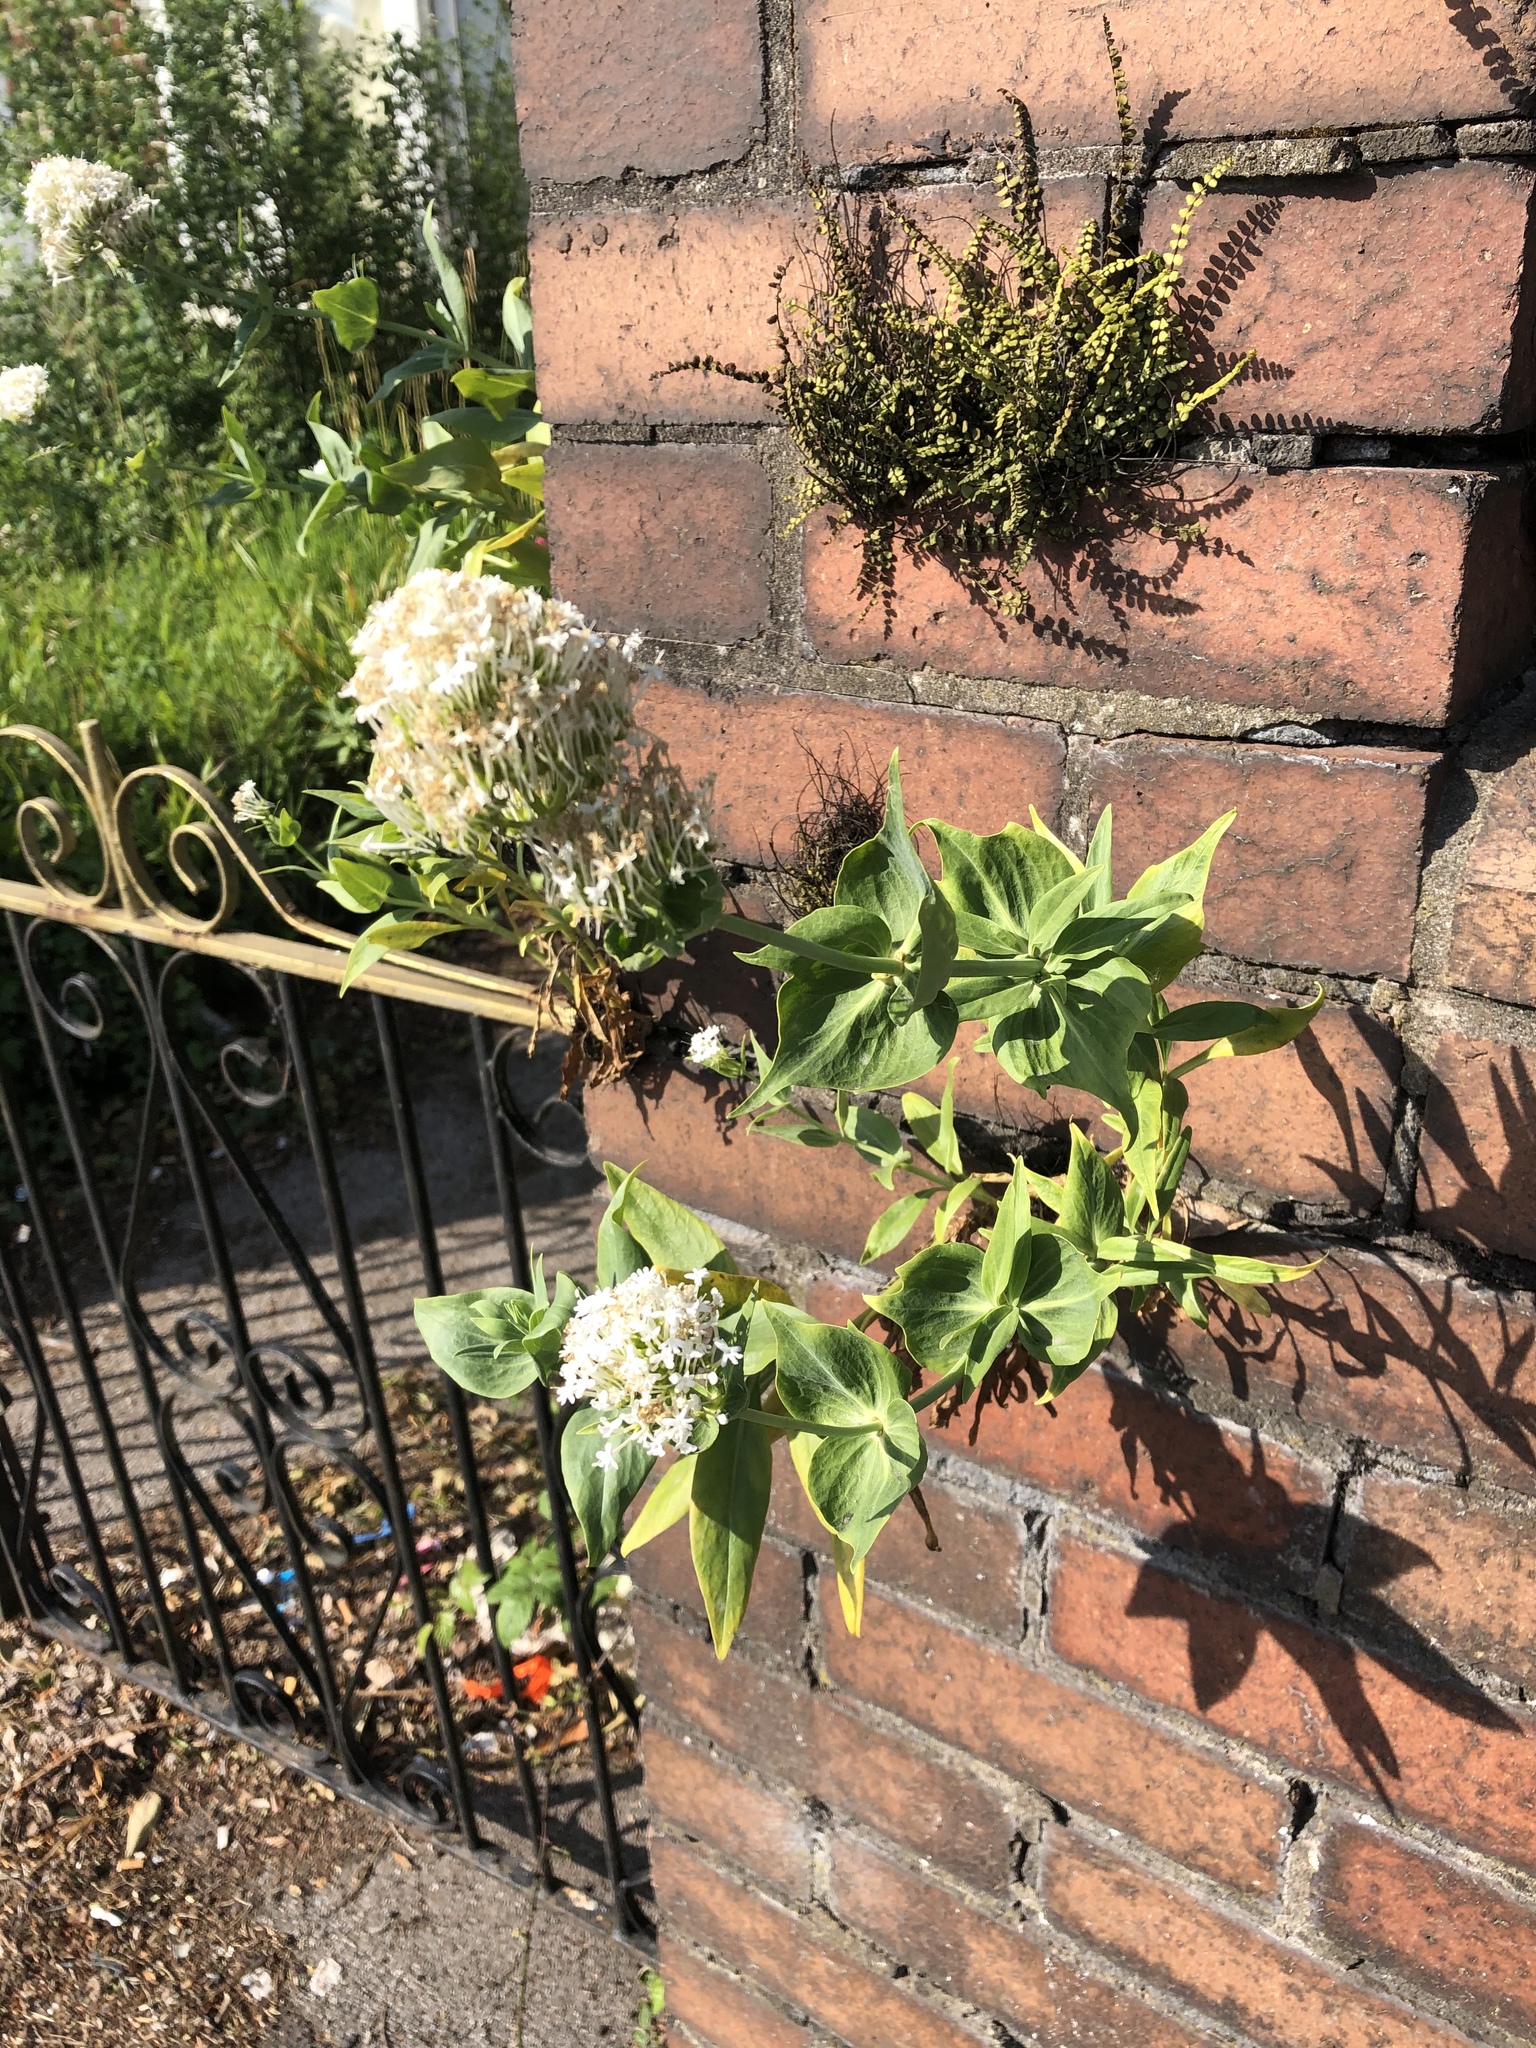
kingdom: Plantae
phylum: Tracheophyta
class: Magnoliopsida
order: Dipsacales
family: Caprifoliaceae
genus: Centranthus
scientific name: Centranthus ruber
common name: Red valerian
